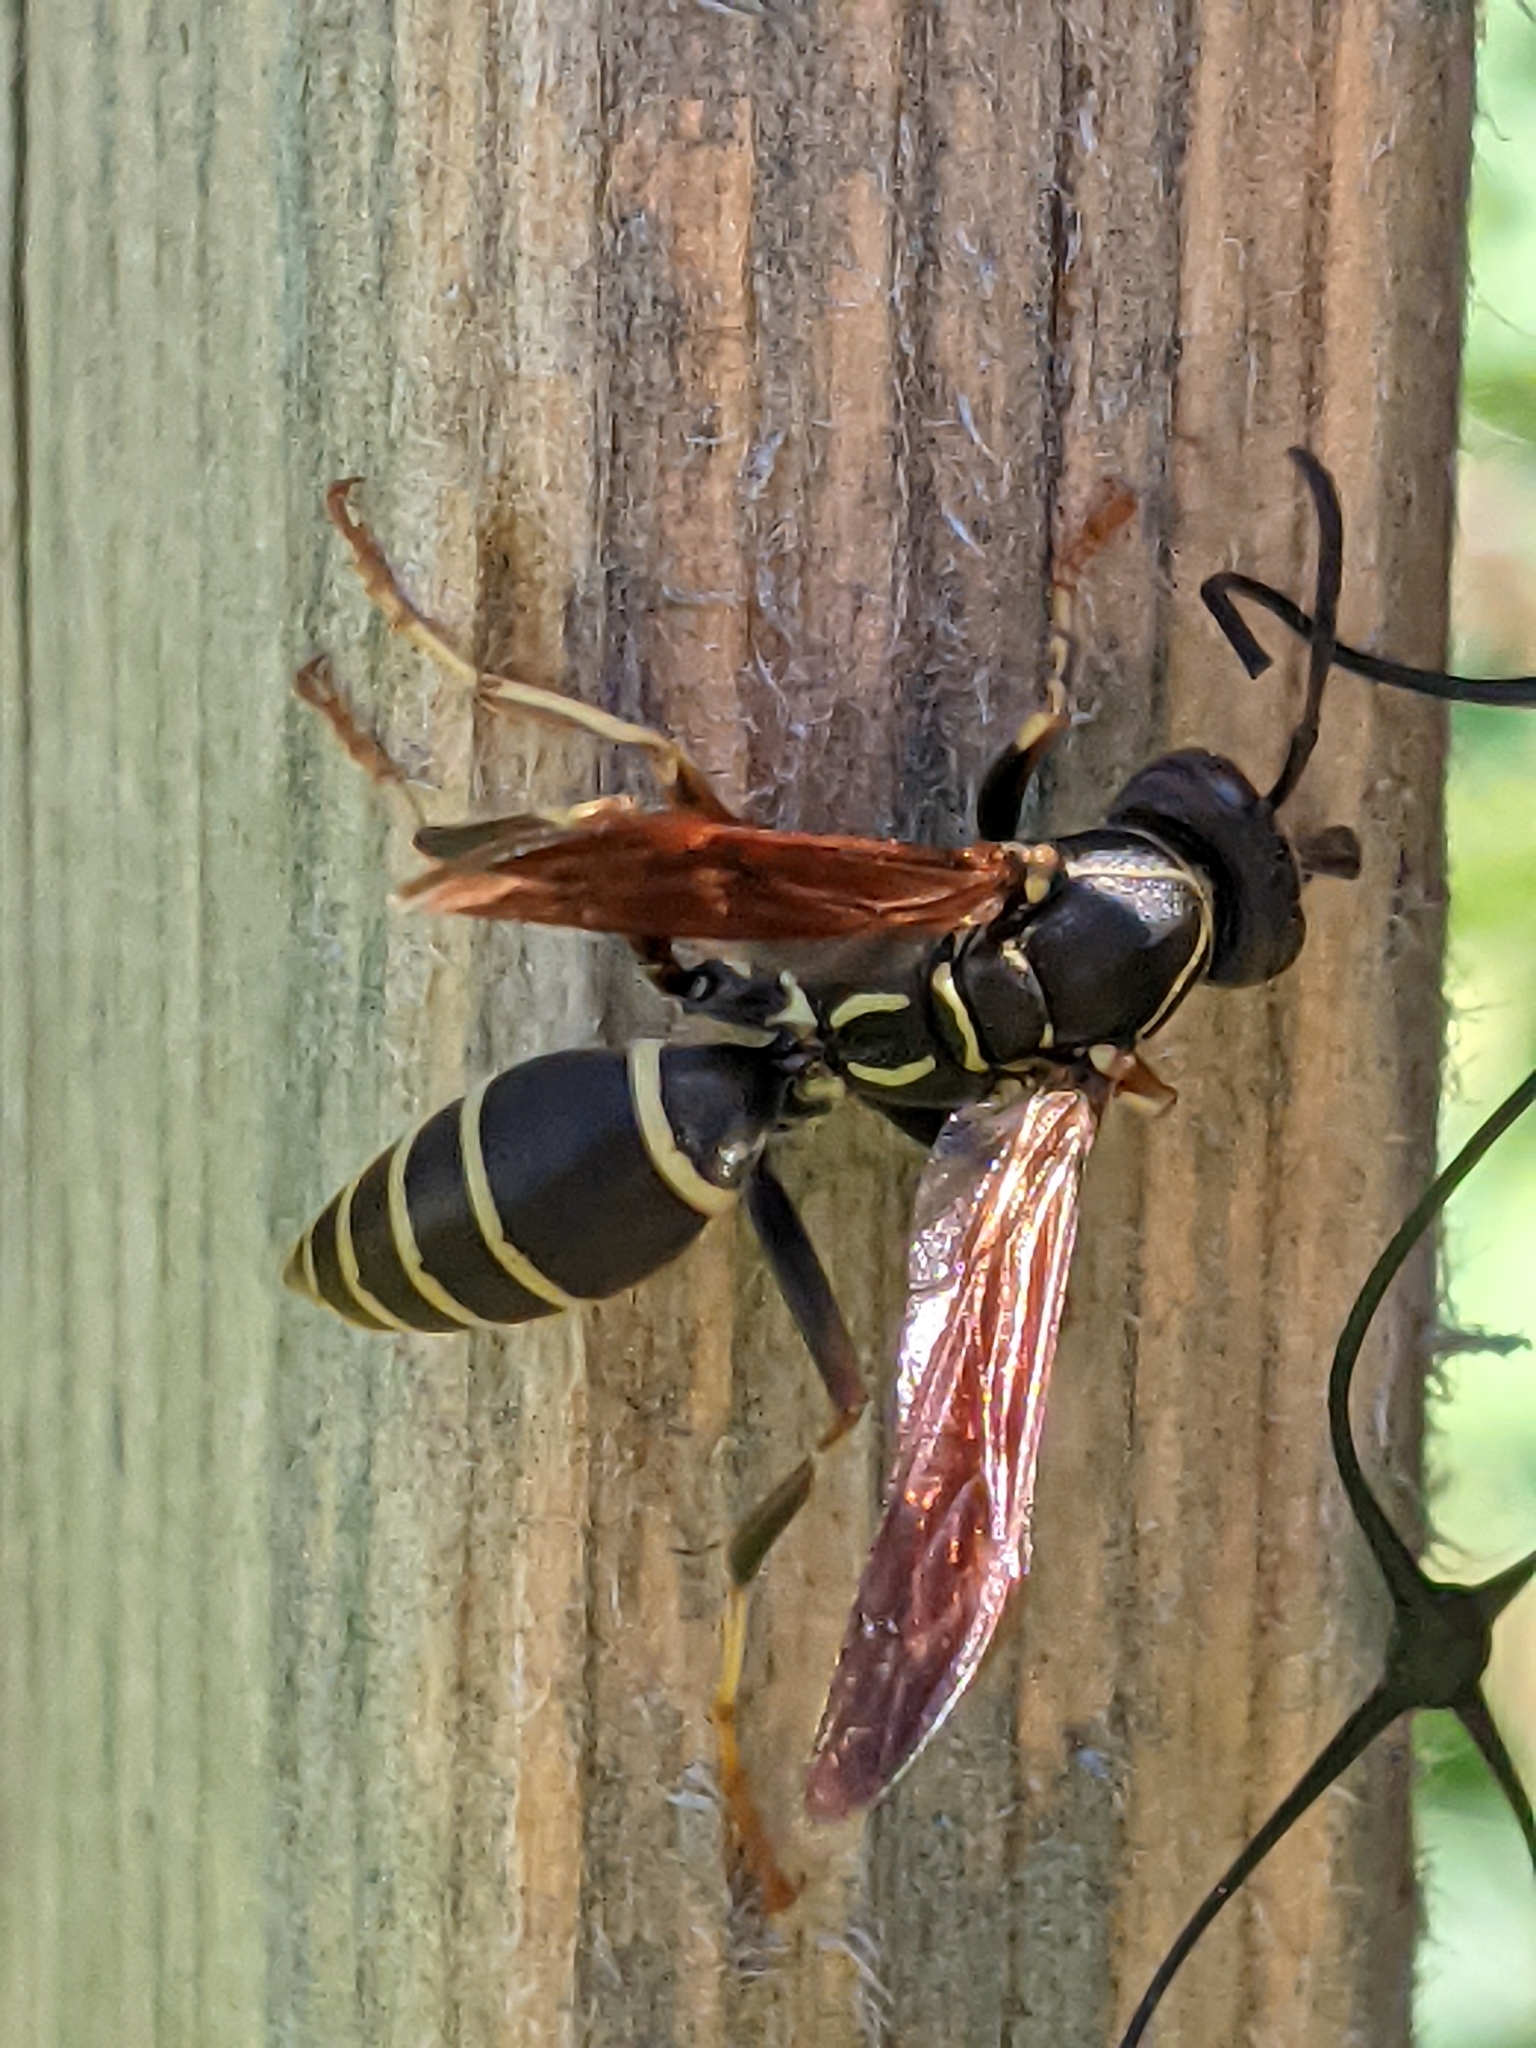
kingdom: Animalia
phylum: Arthropoda
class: Insecta
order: Hymenoptera
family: Eumenidae
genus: Polistes
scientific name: Polistes fuscatus
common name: Dark paper wasp
